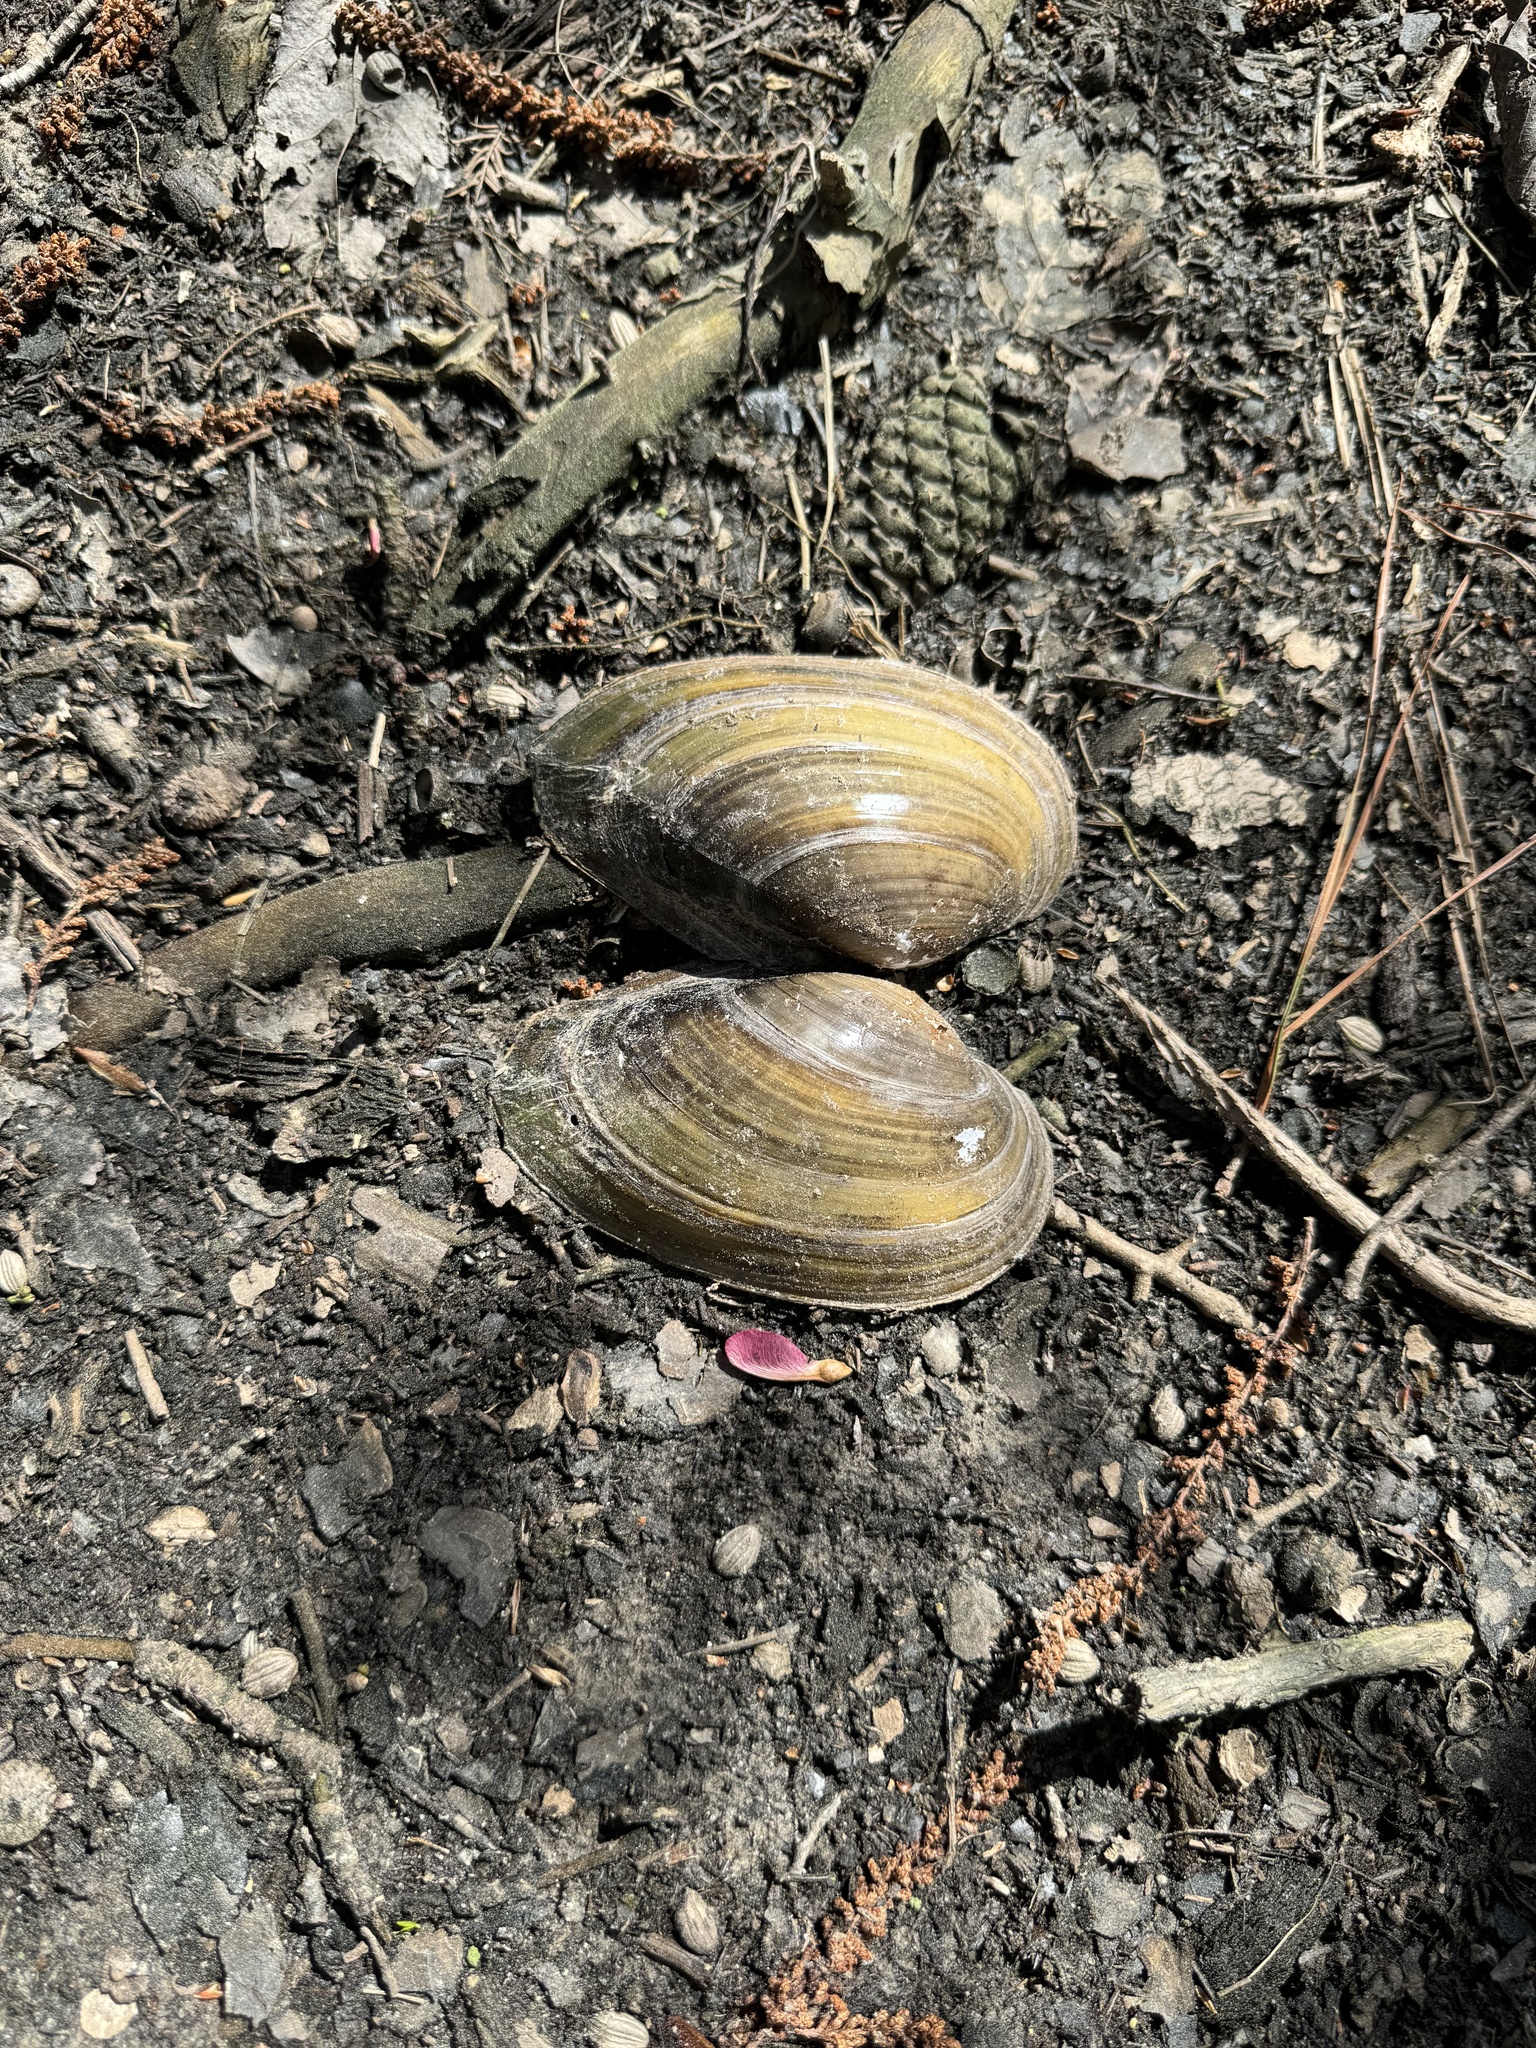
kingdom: Animalia
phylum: Mollusca
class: Bivalvia
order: Unionida
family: Unionidae
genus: Pyganodon
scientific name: Pyganodon cataracta
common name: Eastern floater
